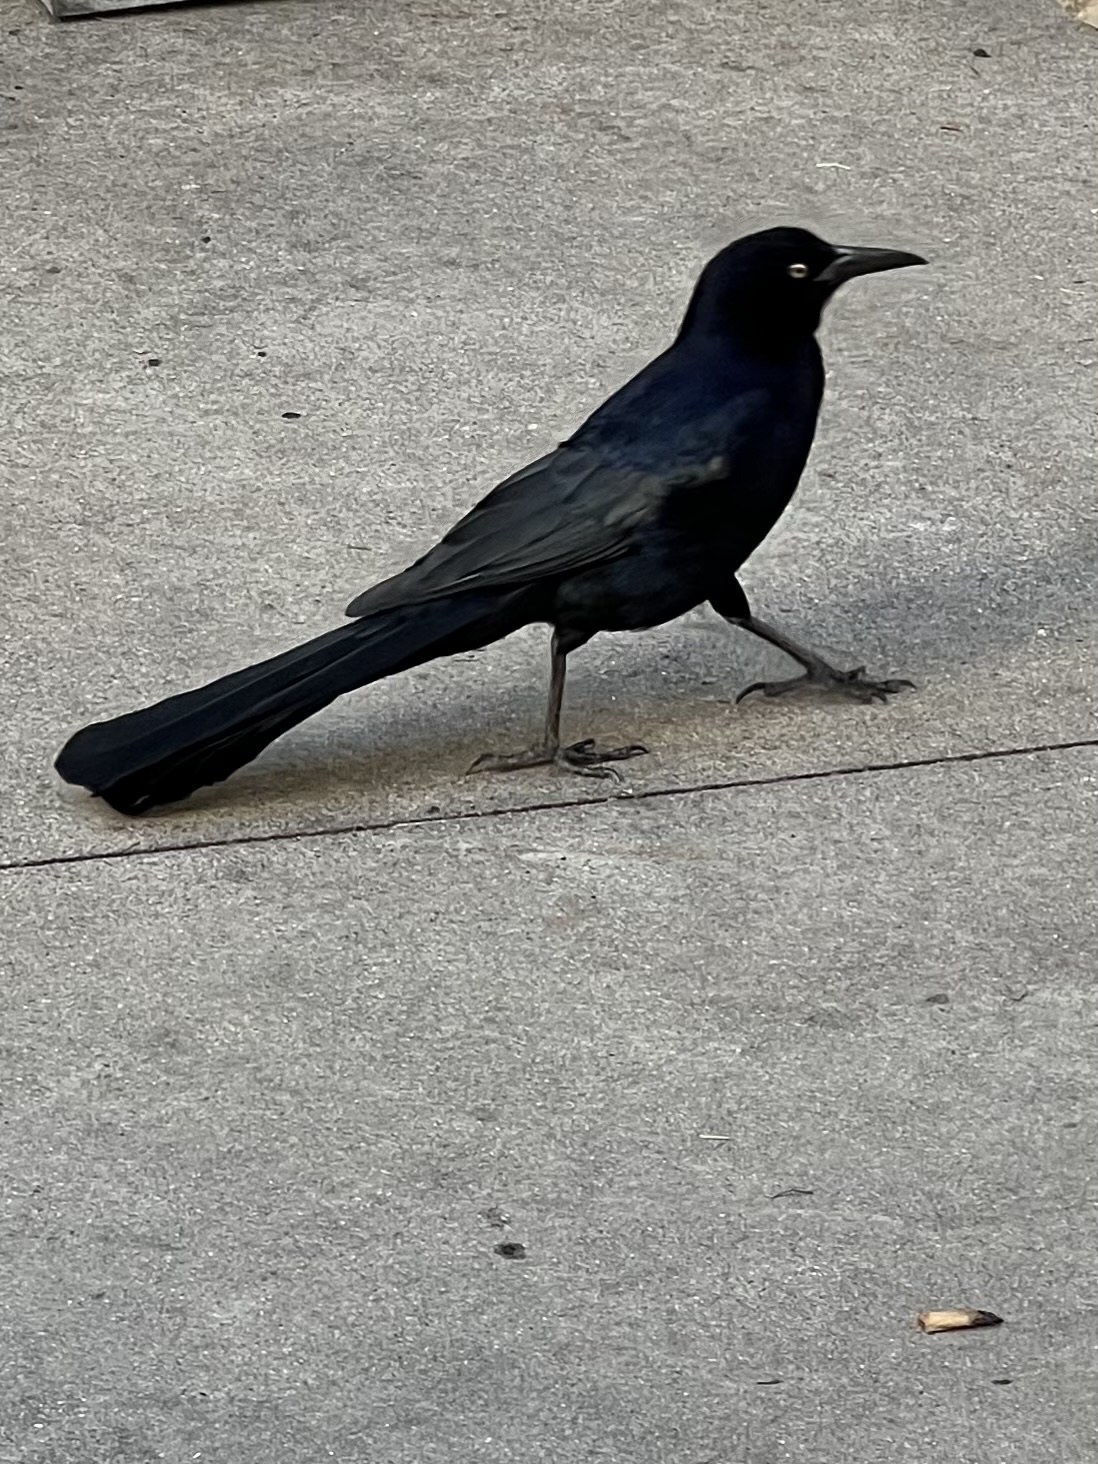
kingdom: Animalia
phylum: Chordata
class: Aves
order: Passeriformes
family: Icteridae
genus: Quiscalus
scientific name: Quiscalus mexicanus
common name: Great-tailed grackle
